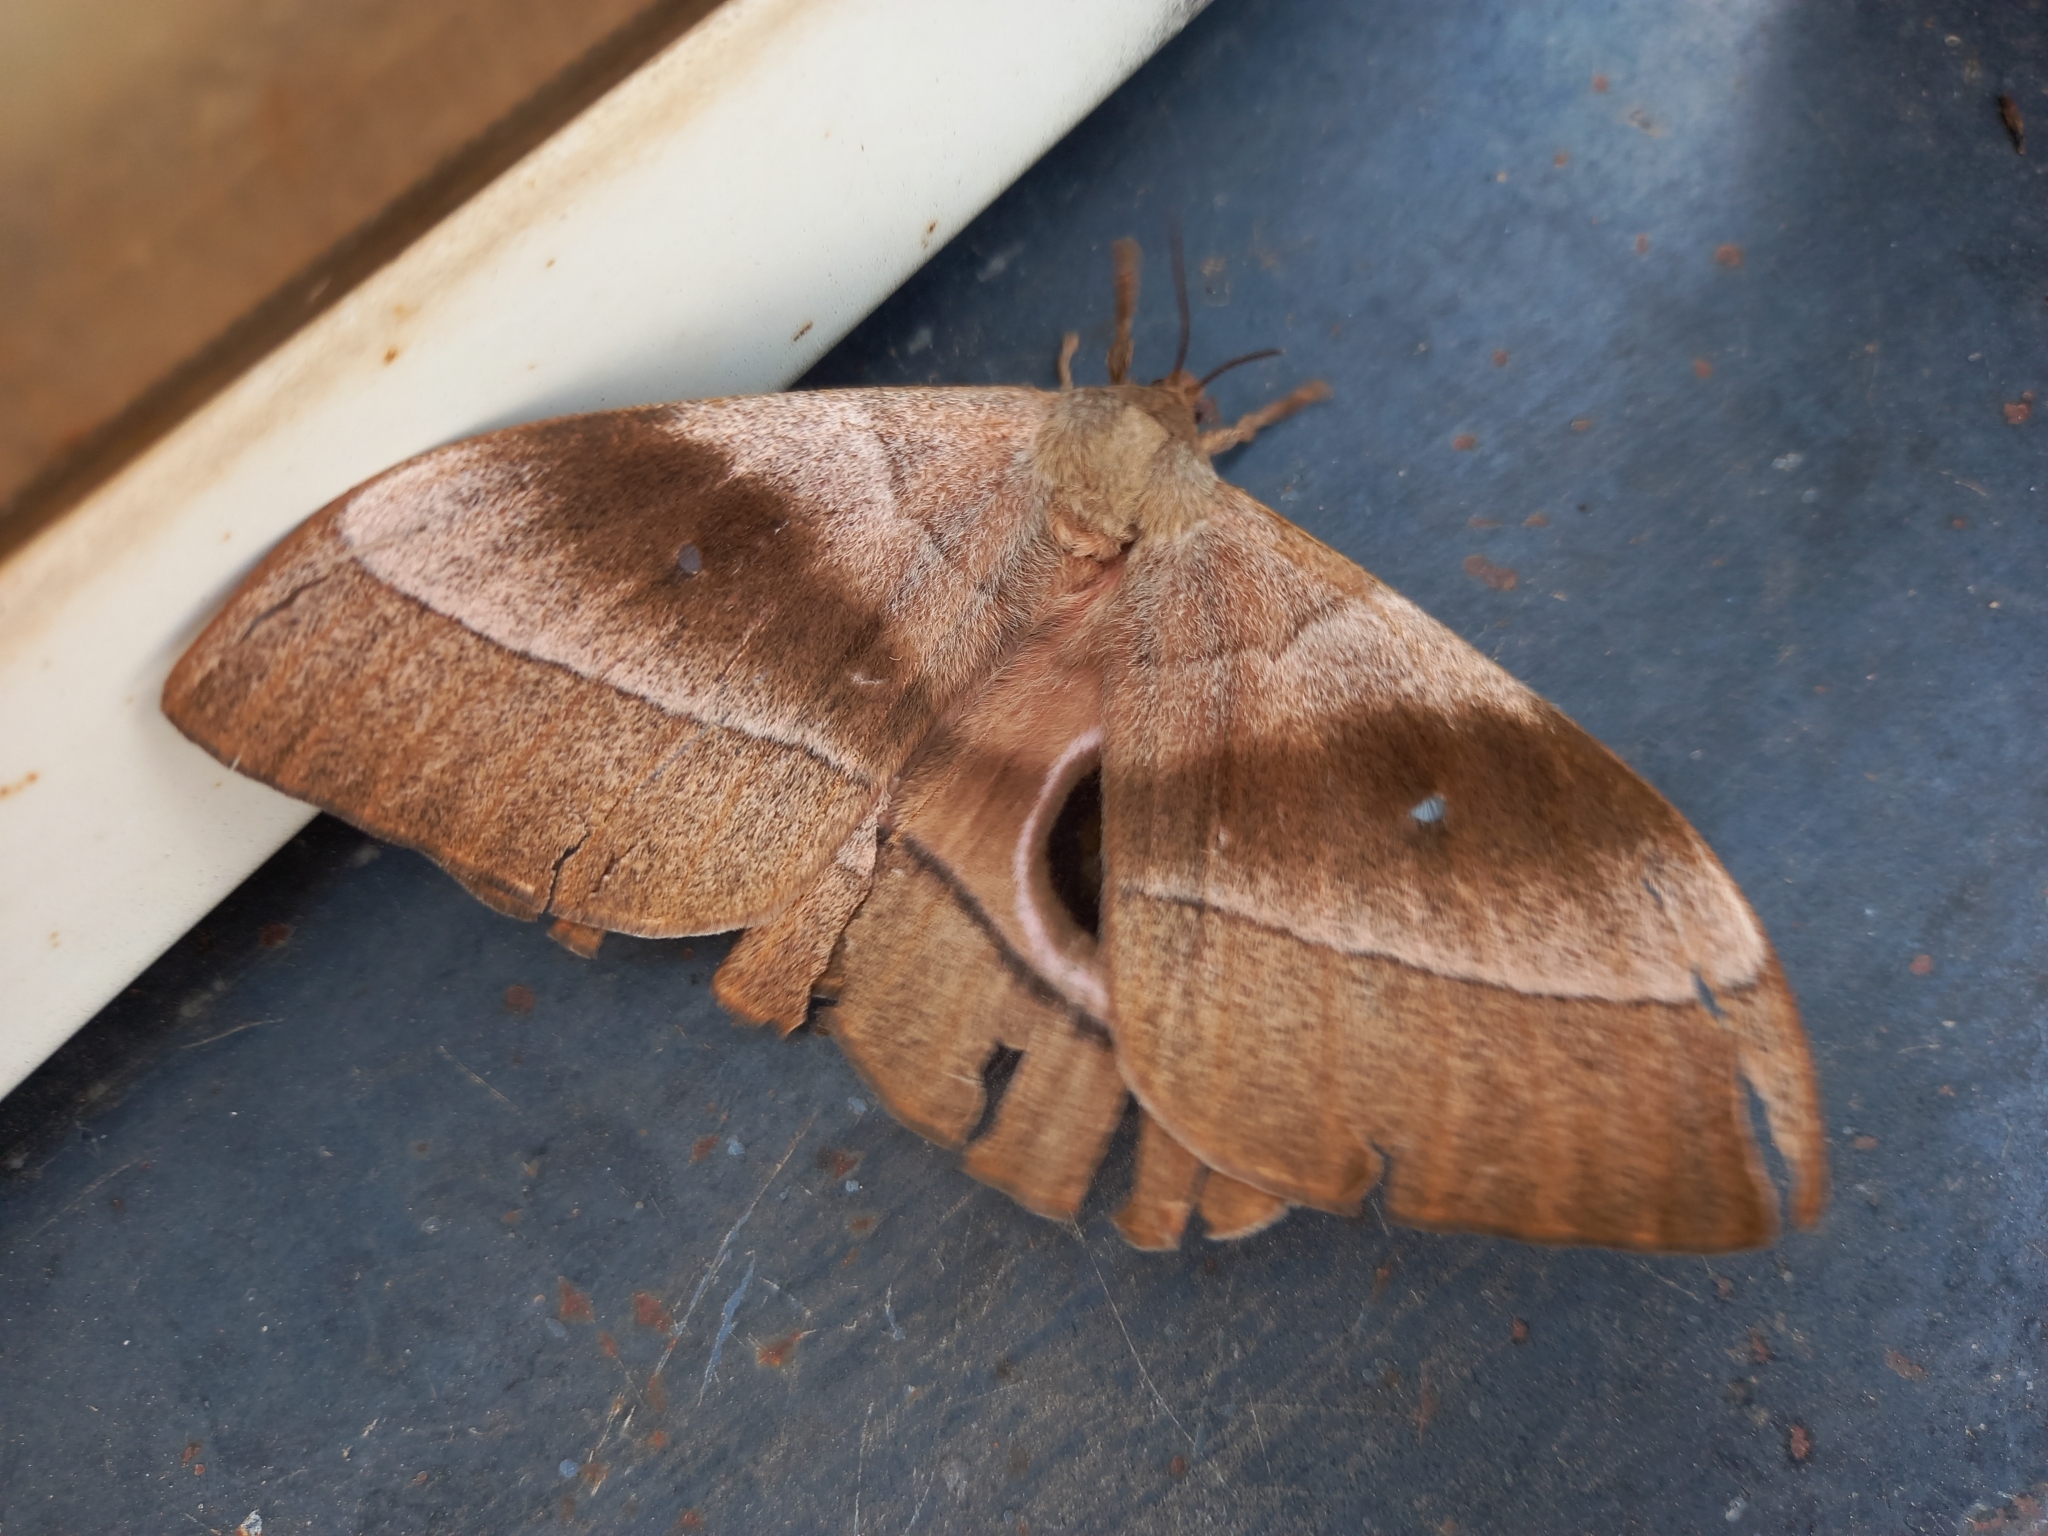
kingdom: Animalia
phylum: Arthropoda
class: Insecta
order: Lepidoptera
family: Saturniidae
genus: Gonimbrasia
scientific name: Gonimbrasia hecate
